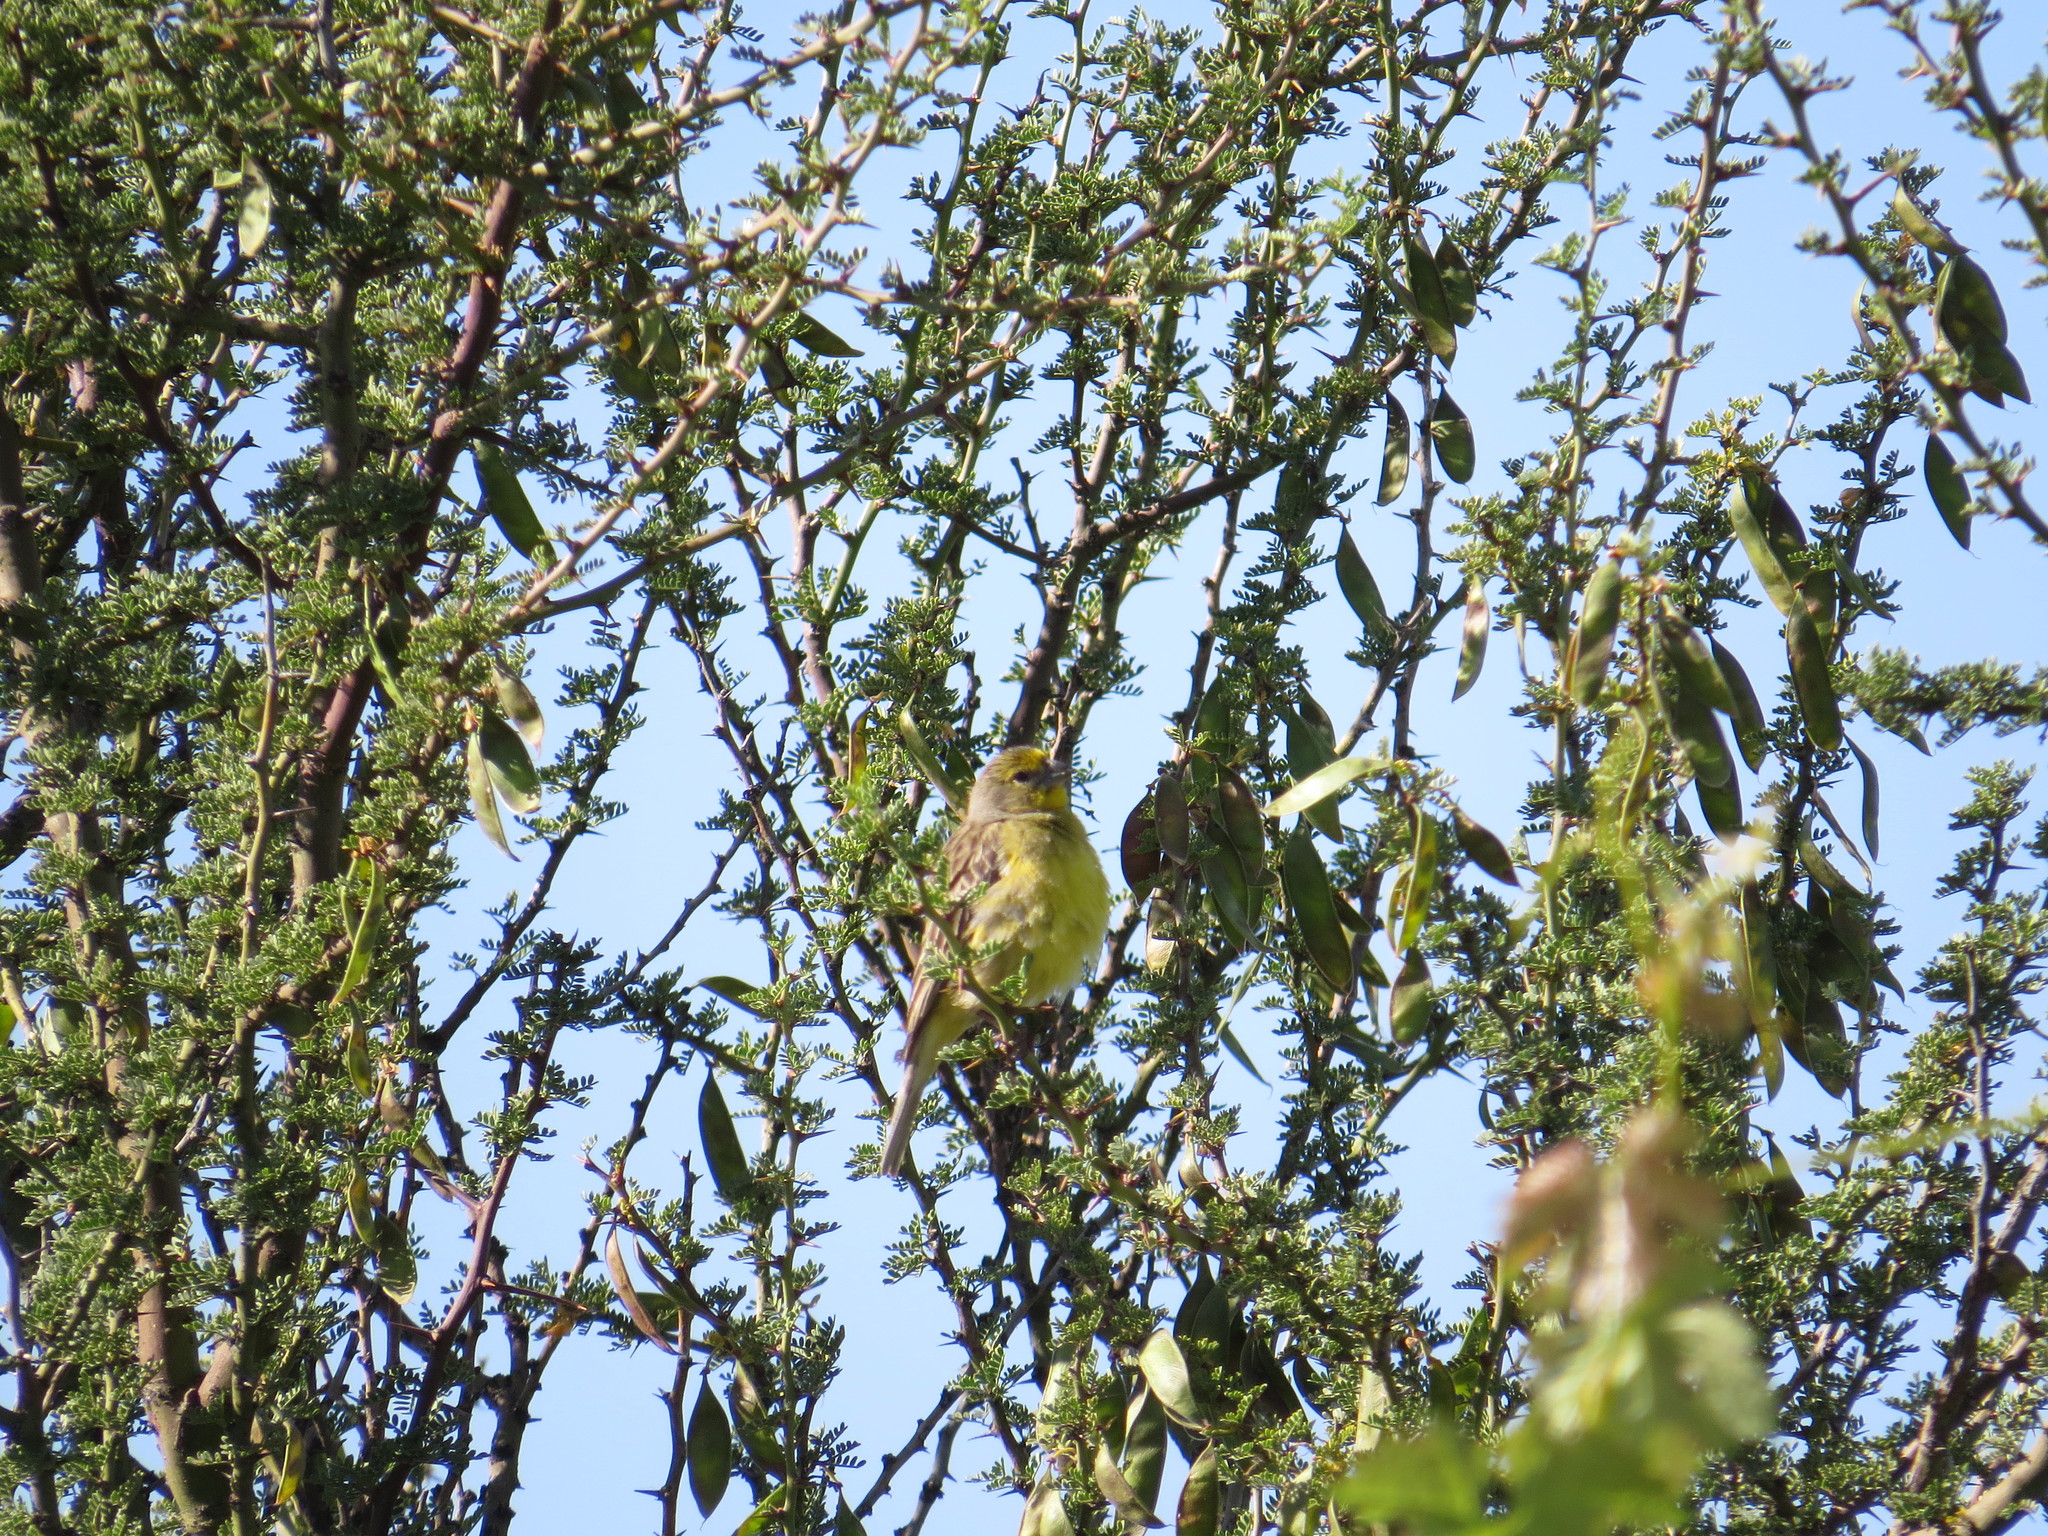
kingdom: Animalia
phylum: Chordata
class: Aves
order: Passeriformes
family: Thraupidae
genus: Sicalis
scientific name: Sicalis luteola
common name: Grassland yellow-finch
